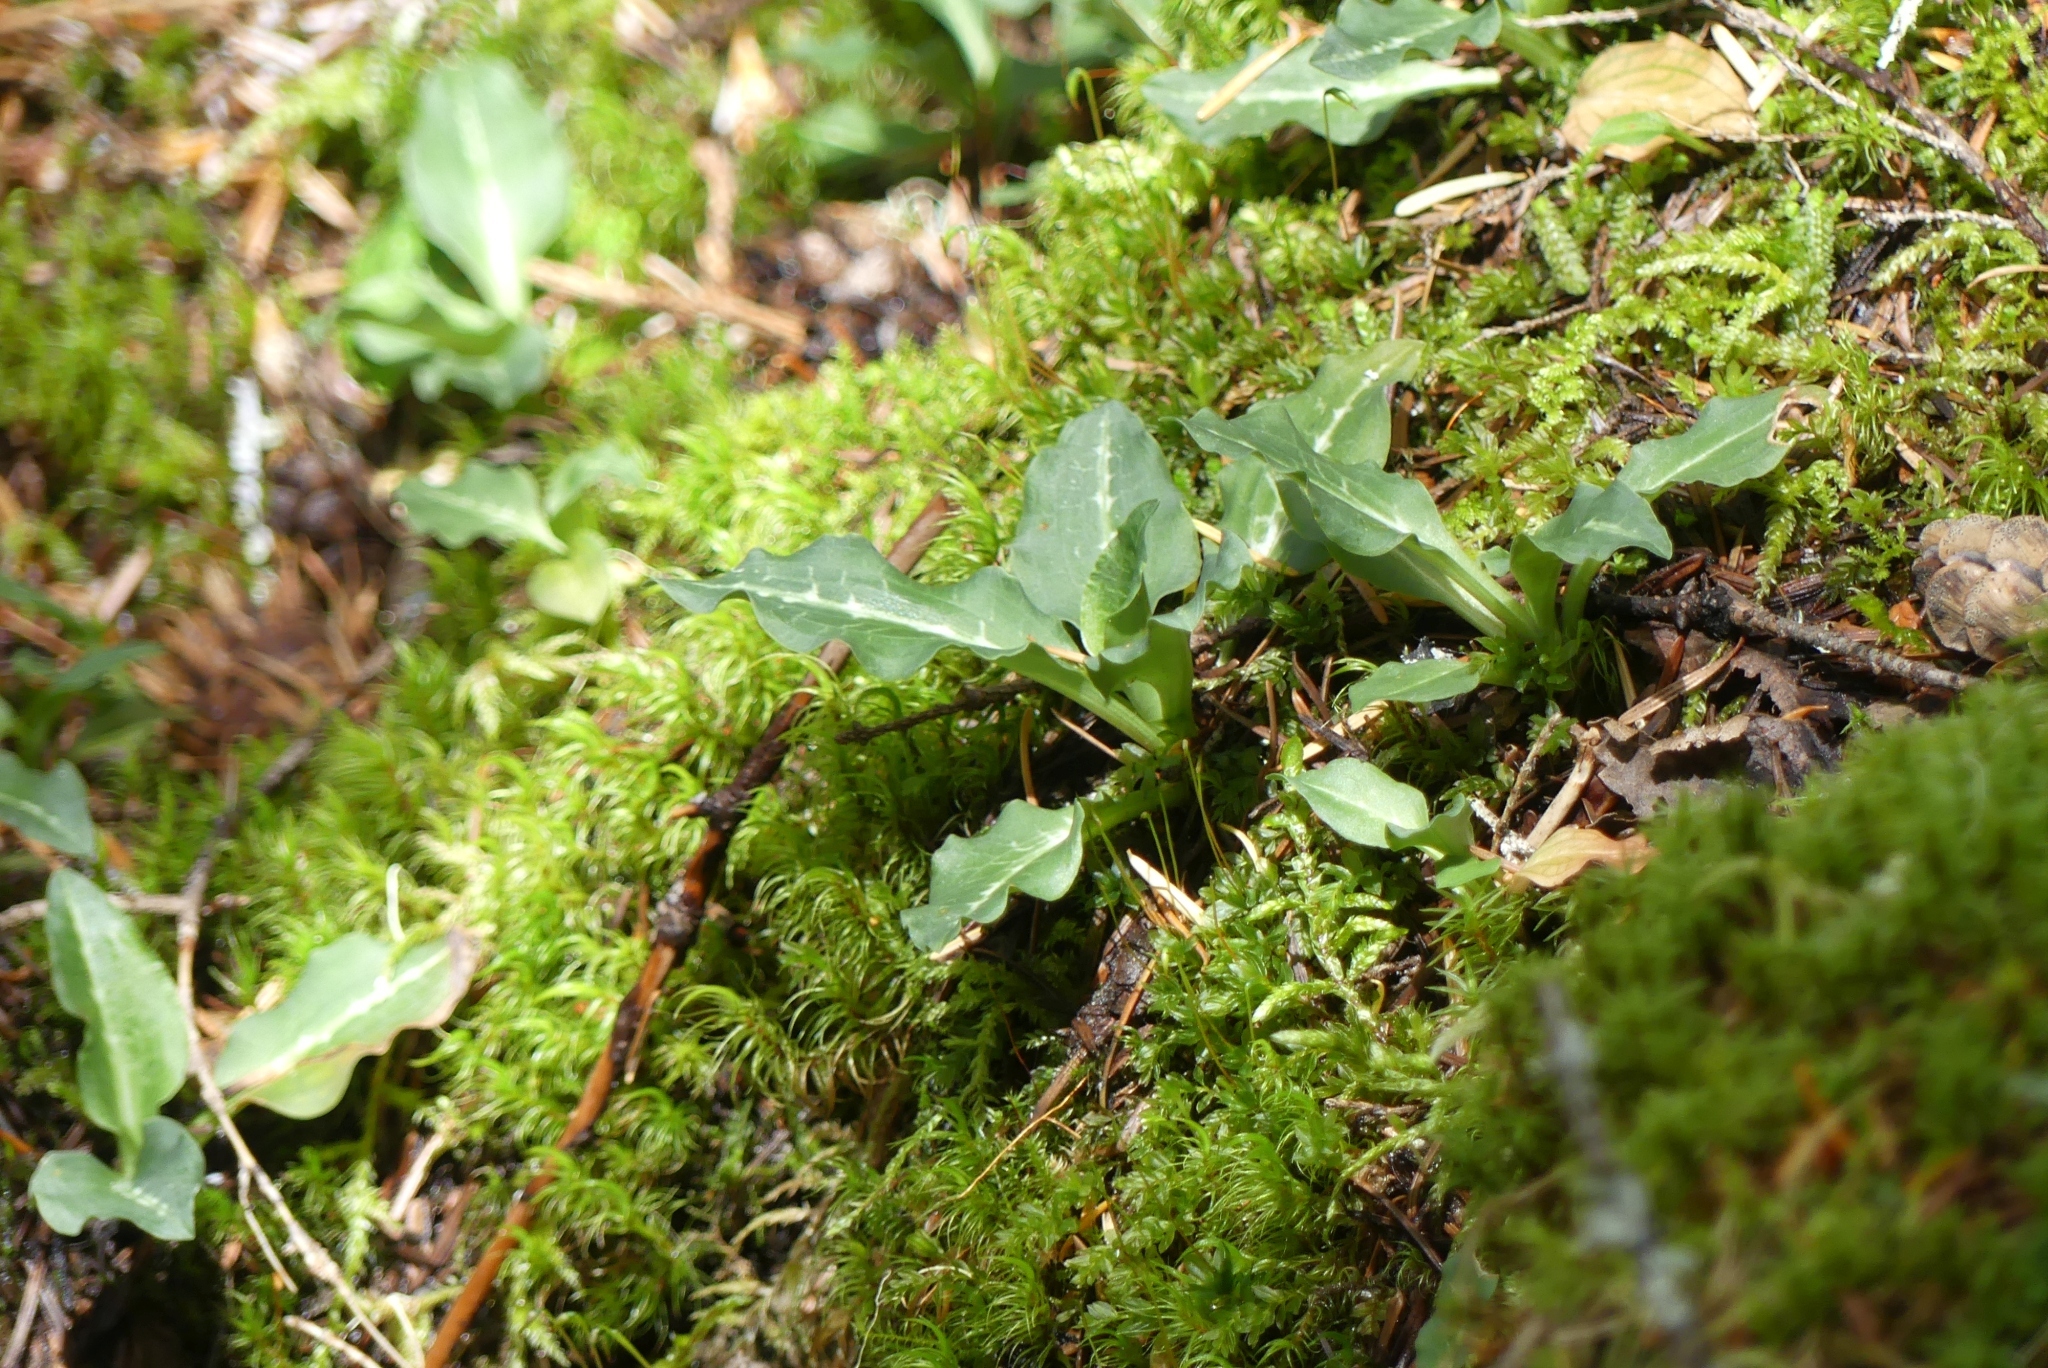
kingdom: Plantae
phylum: Tracheophyta
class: Liliopsida
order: Asparagales
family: Orchidaceae
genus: Goodyera
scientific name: Goodyera oblongifolia
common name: Giant rattlesnake-plantain
